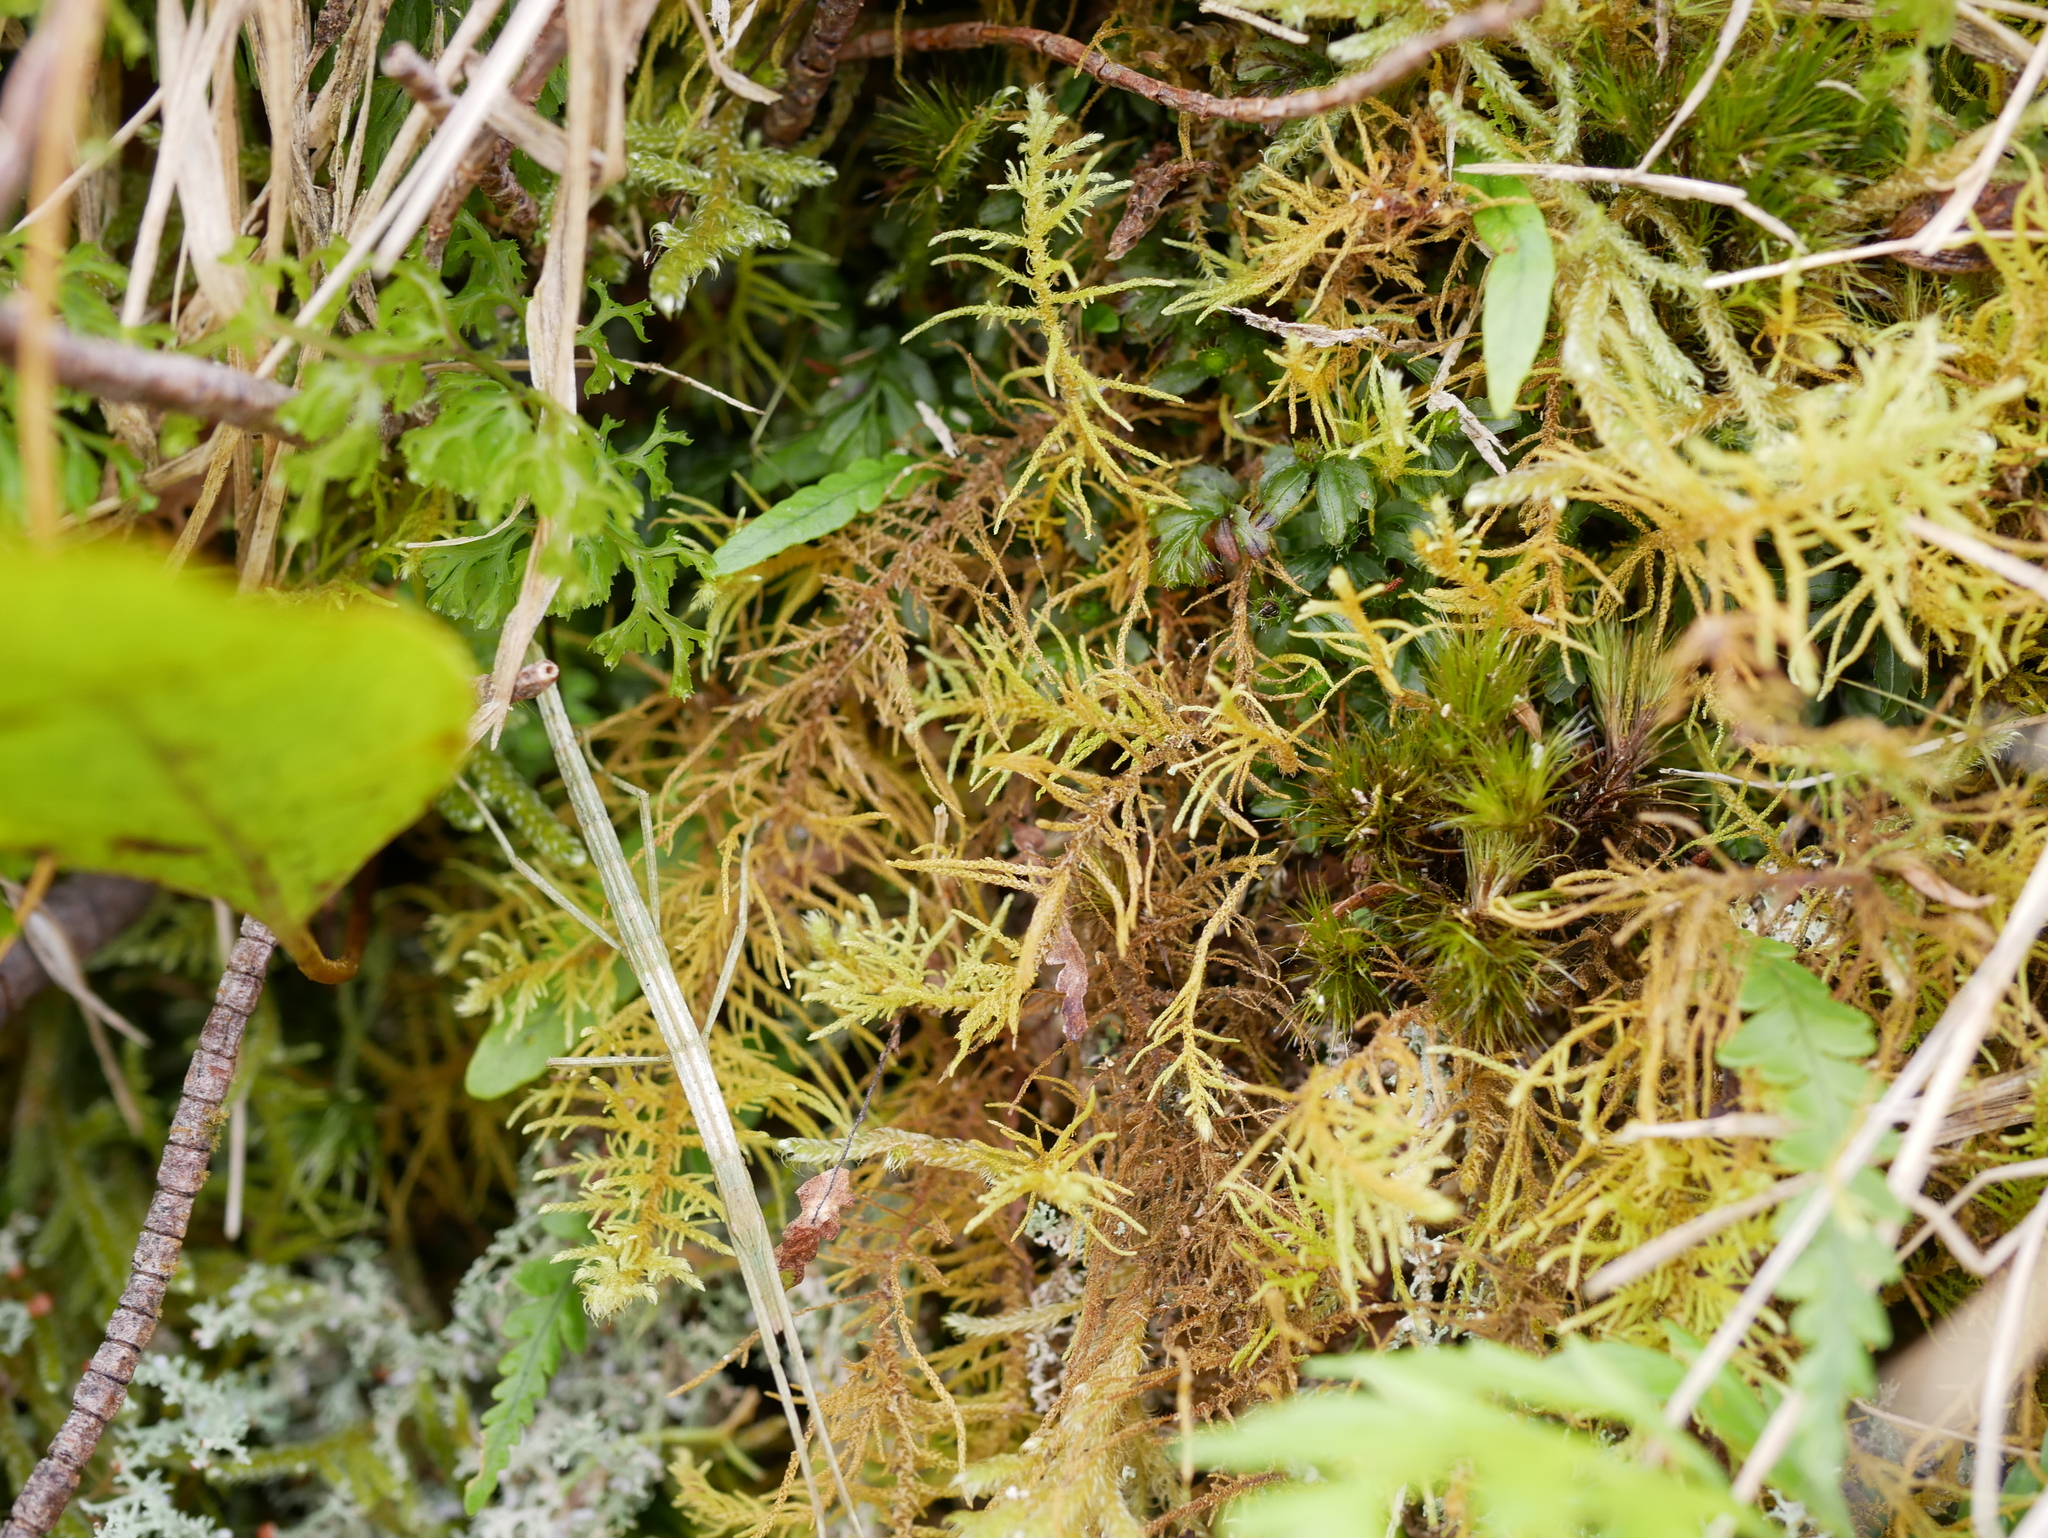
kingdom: Plantae
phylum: Bryophyta
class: Bryopsida
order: Hypnales
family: Thuidiaceae
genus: Thuidiopsis
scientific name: Thuidiopsis furfurosa
